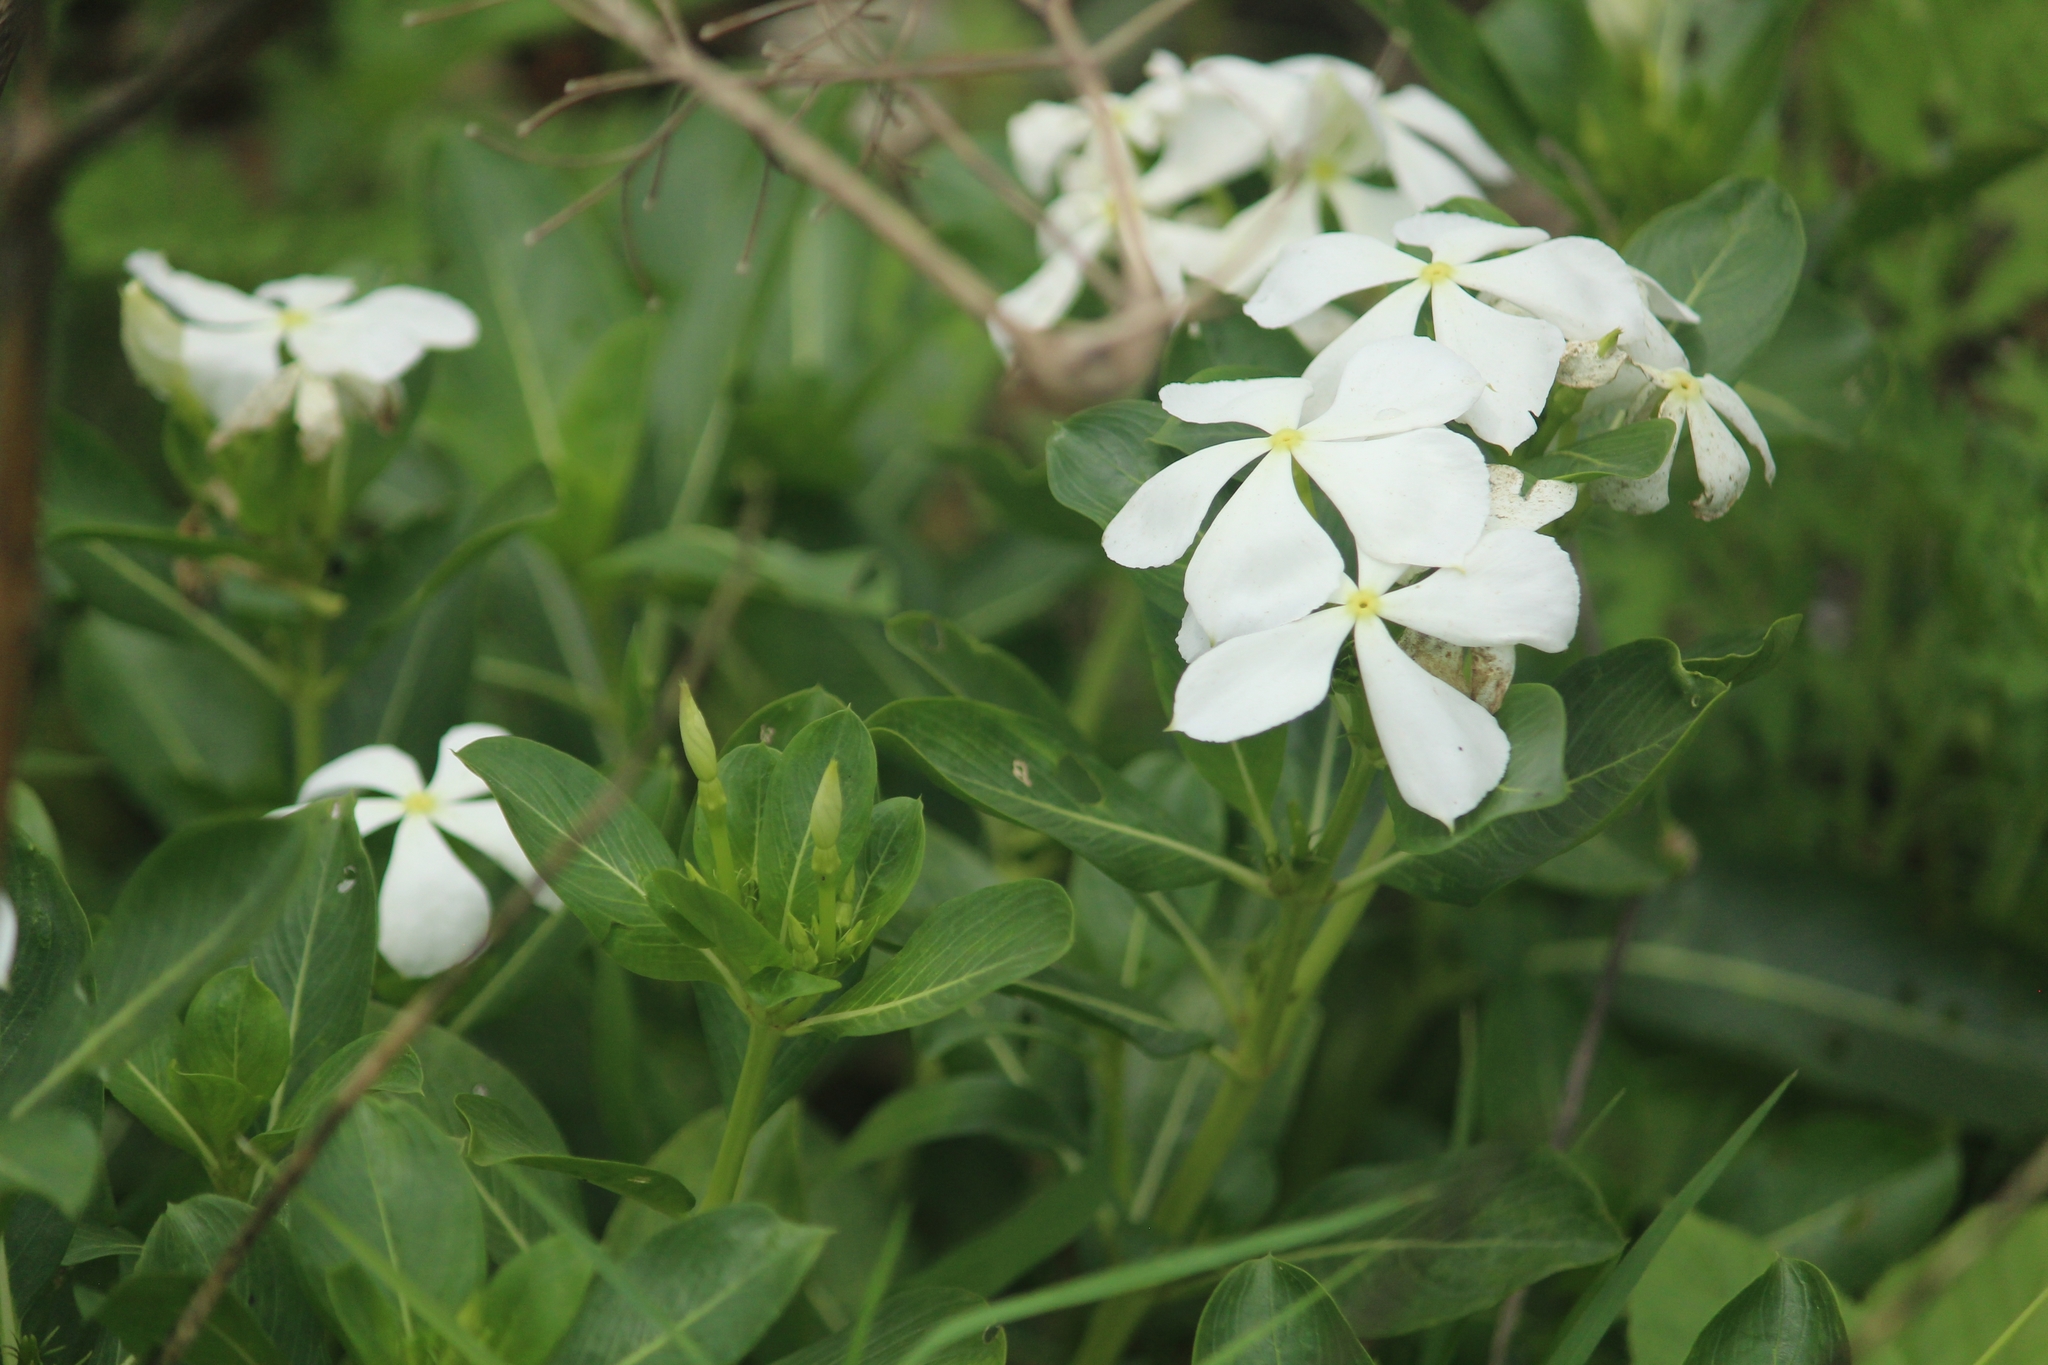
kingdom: Plantae
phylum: Tracheophyta
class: Magnoliopsida
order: Gentianales
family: Apocynaceae
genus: Catharanthus
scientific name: Catharanthus roseus
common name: Madagascar periwinkle
